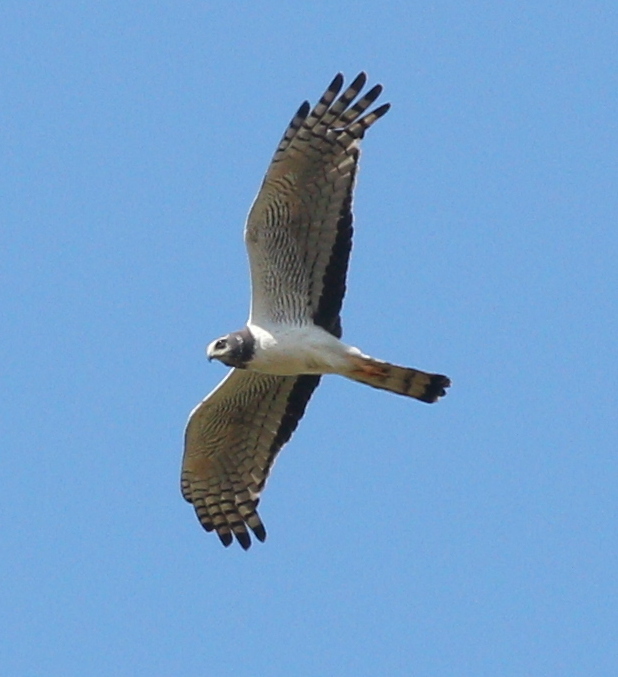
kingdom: Animalia
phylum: Chordata
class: Aves
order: Accipitriformes
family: Accipitridae
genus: Circus
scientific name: Circus buffoni
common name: Long-winged harrier
